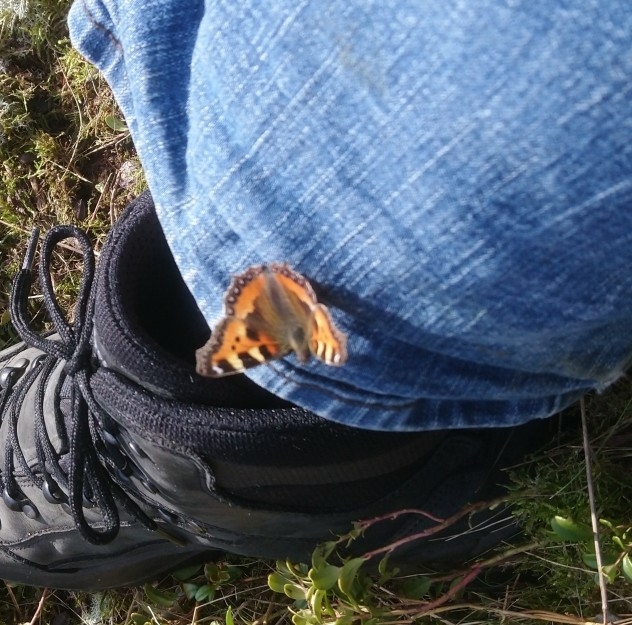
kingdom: Animalia
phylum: Arthropoda
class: Insecta
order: Lepidoptera
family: Nymphalidae
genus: Aglais
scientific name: Aglais urticae
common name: Small tortoiseshell
